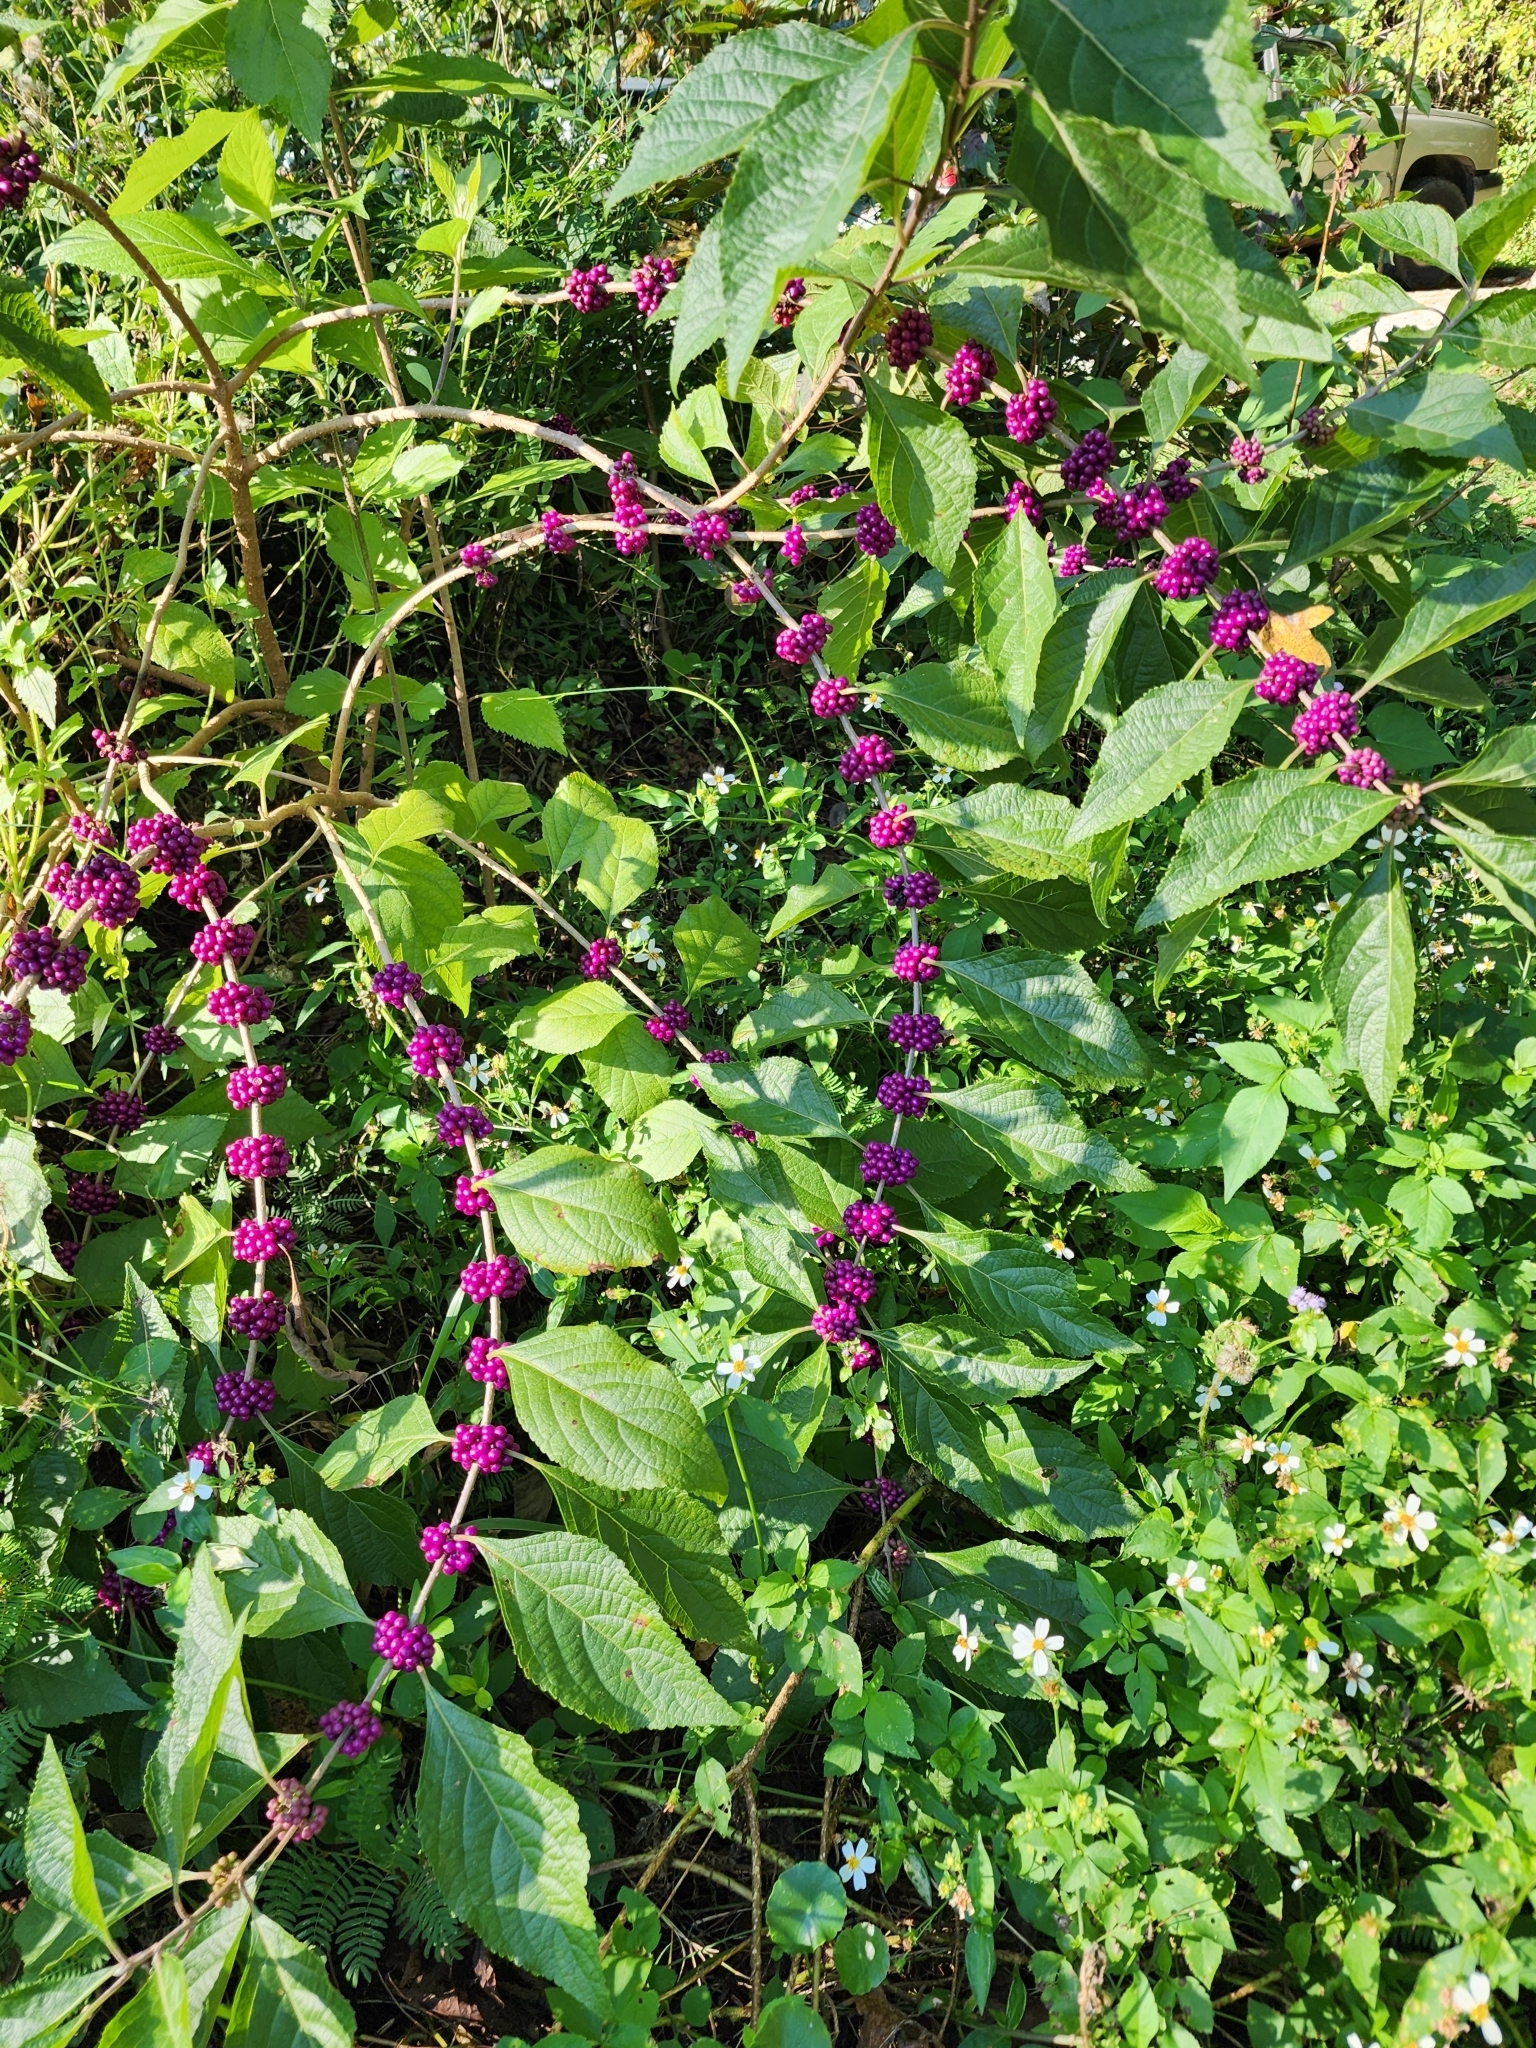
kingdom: Plantae
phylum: Tracheophyta
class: Magnoliopsida
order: Lamiales
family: Lamiaceae
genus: Callicarpa
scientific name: Callicarpa americana
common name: American beautyberry
